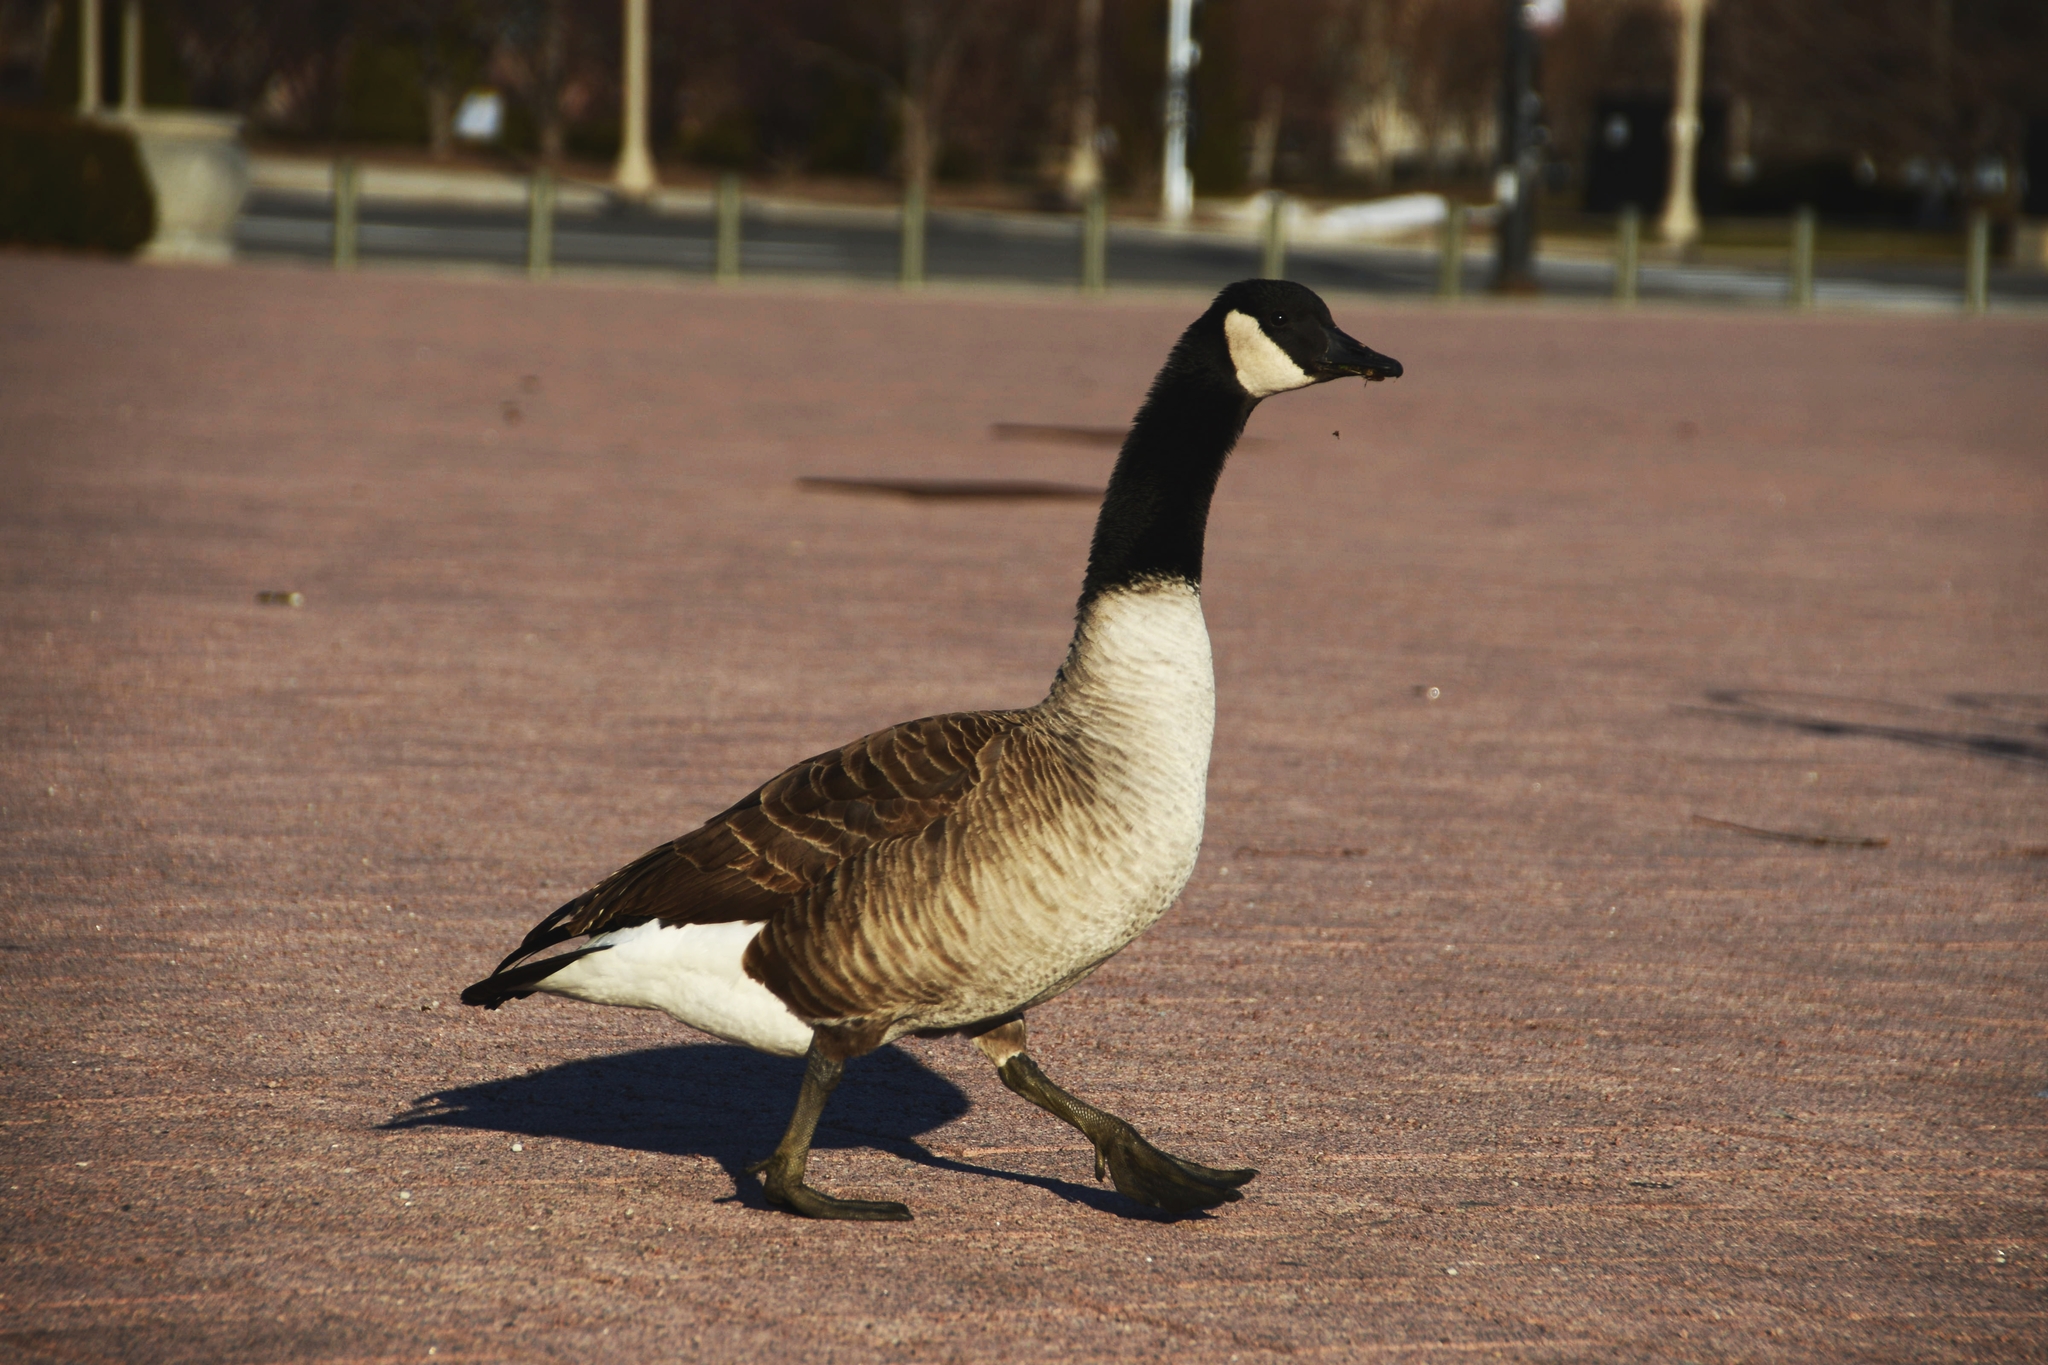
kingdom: Animalia
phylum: Chordata
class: Aves
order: Anseriformes
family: Anatidae
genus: Branta
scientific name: Branta canadensis
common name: Canada goose
